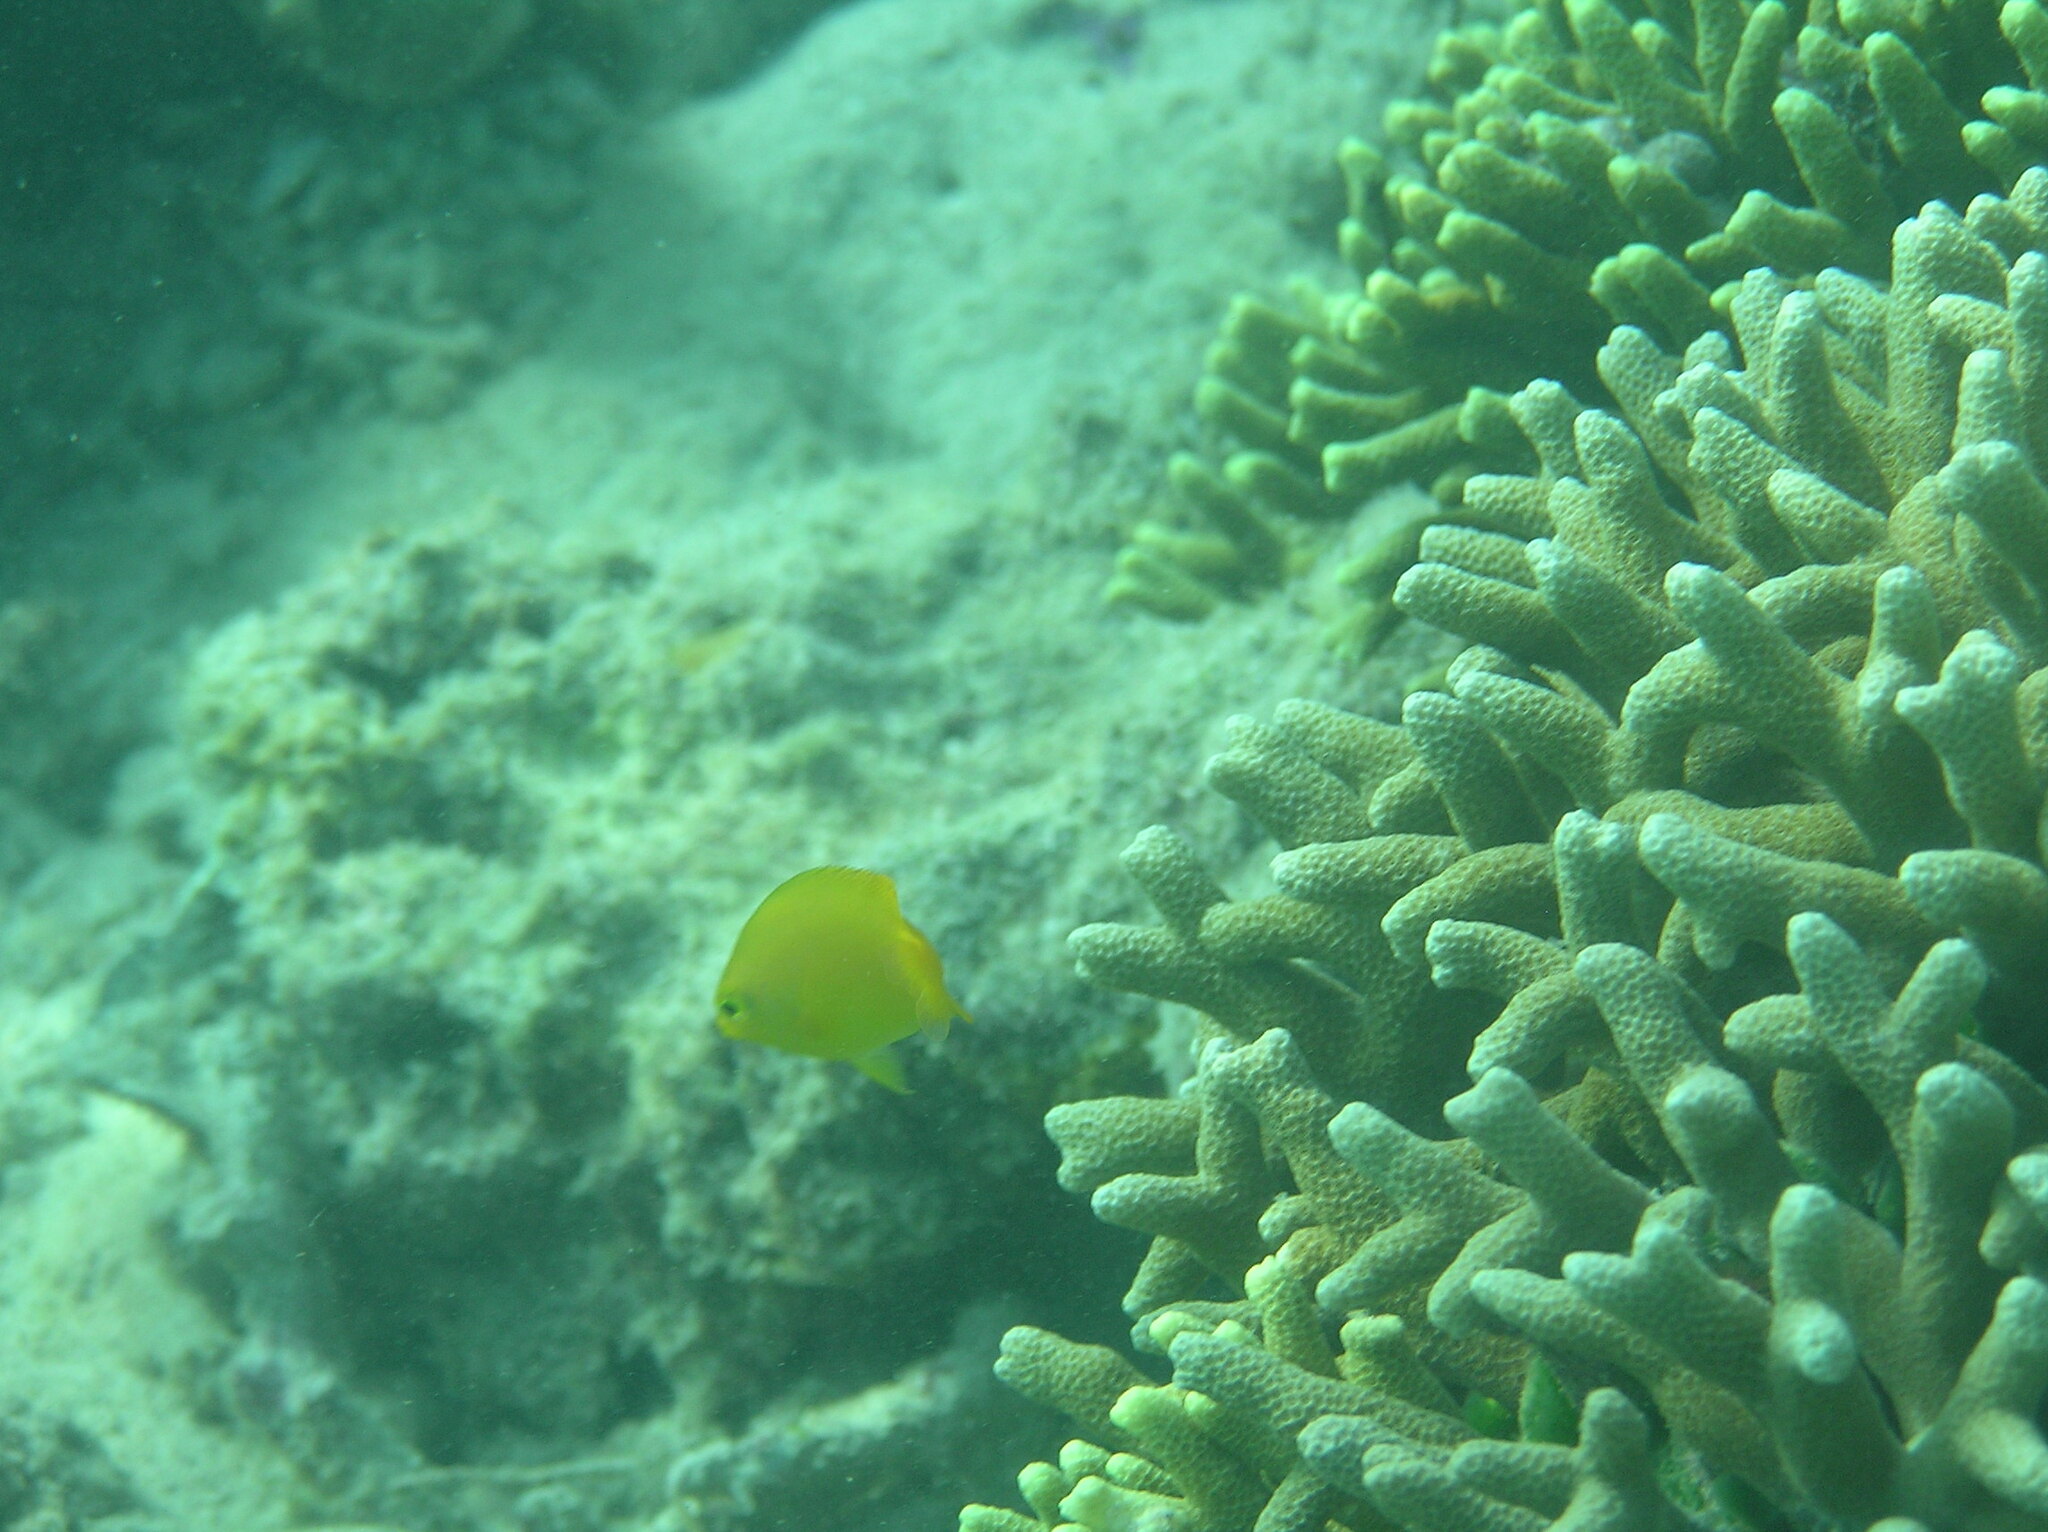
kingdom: Animalia
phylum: Chordata
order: Perciformes
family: Pomacentridae
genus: Pomacentrus
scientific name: Pomacentrus moluccensis
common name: Lemon damsel
